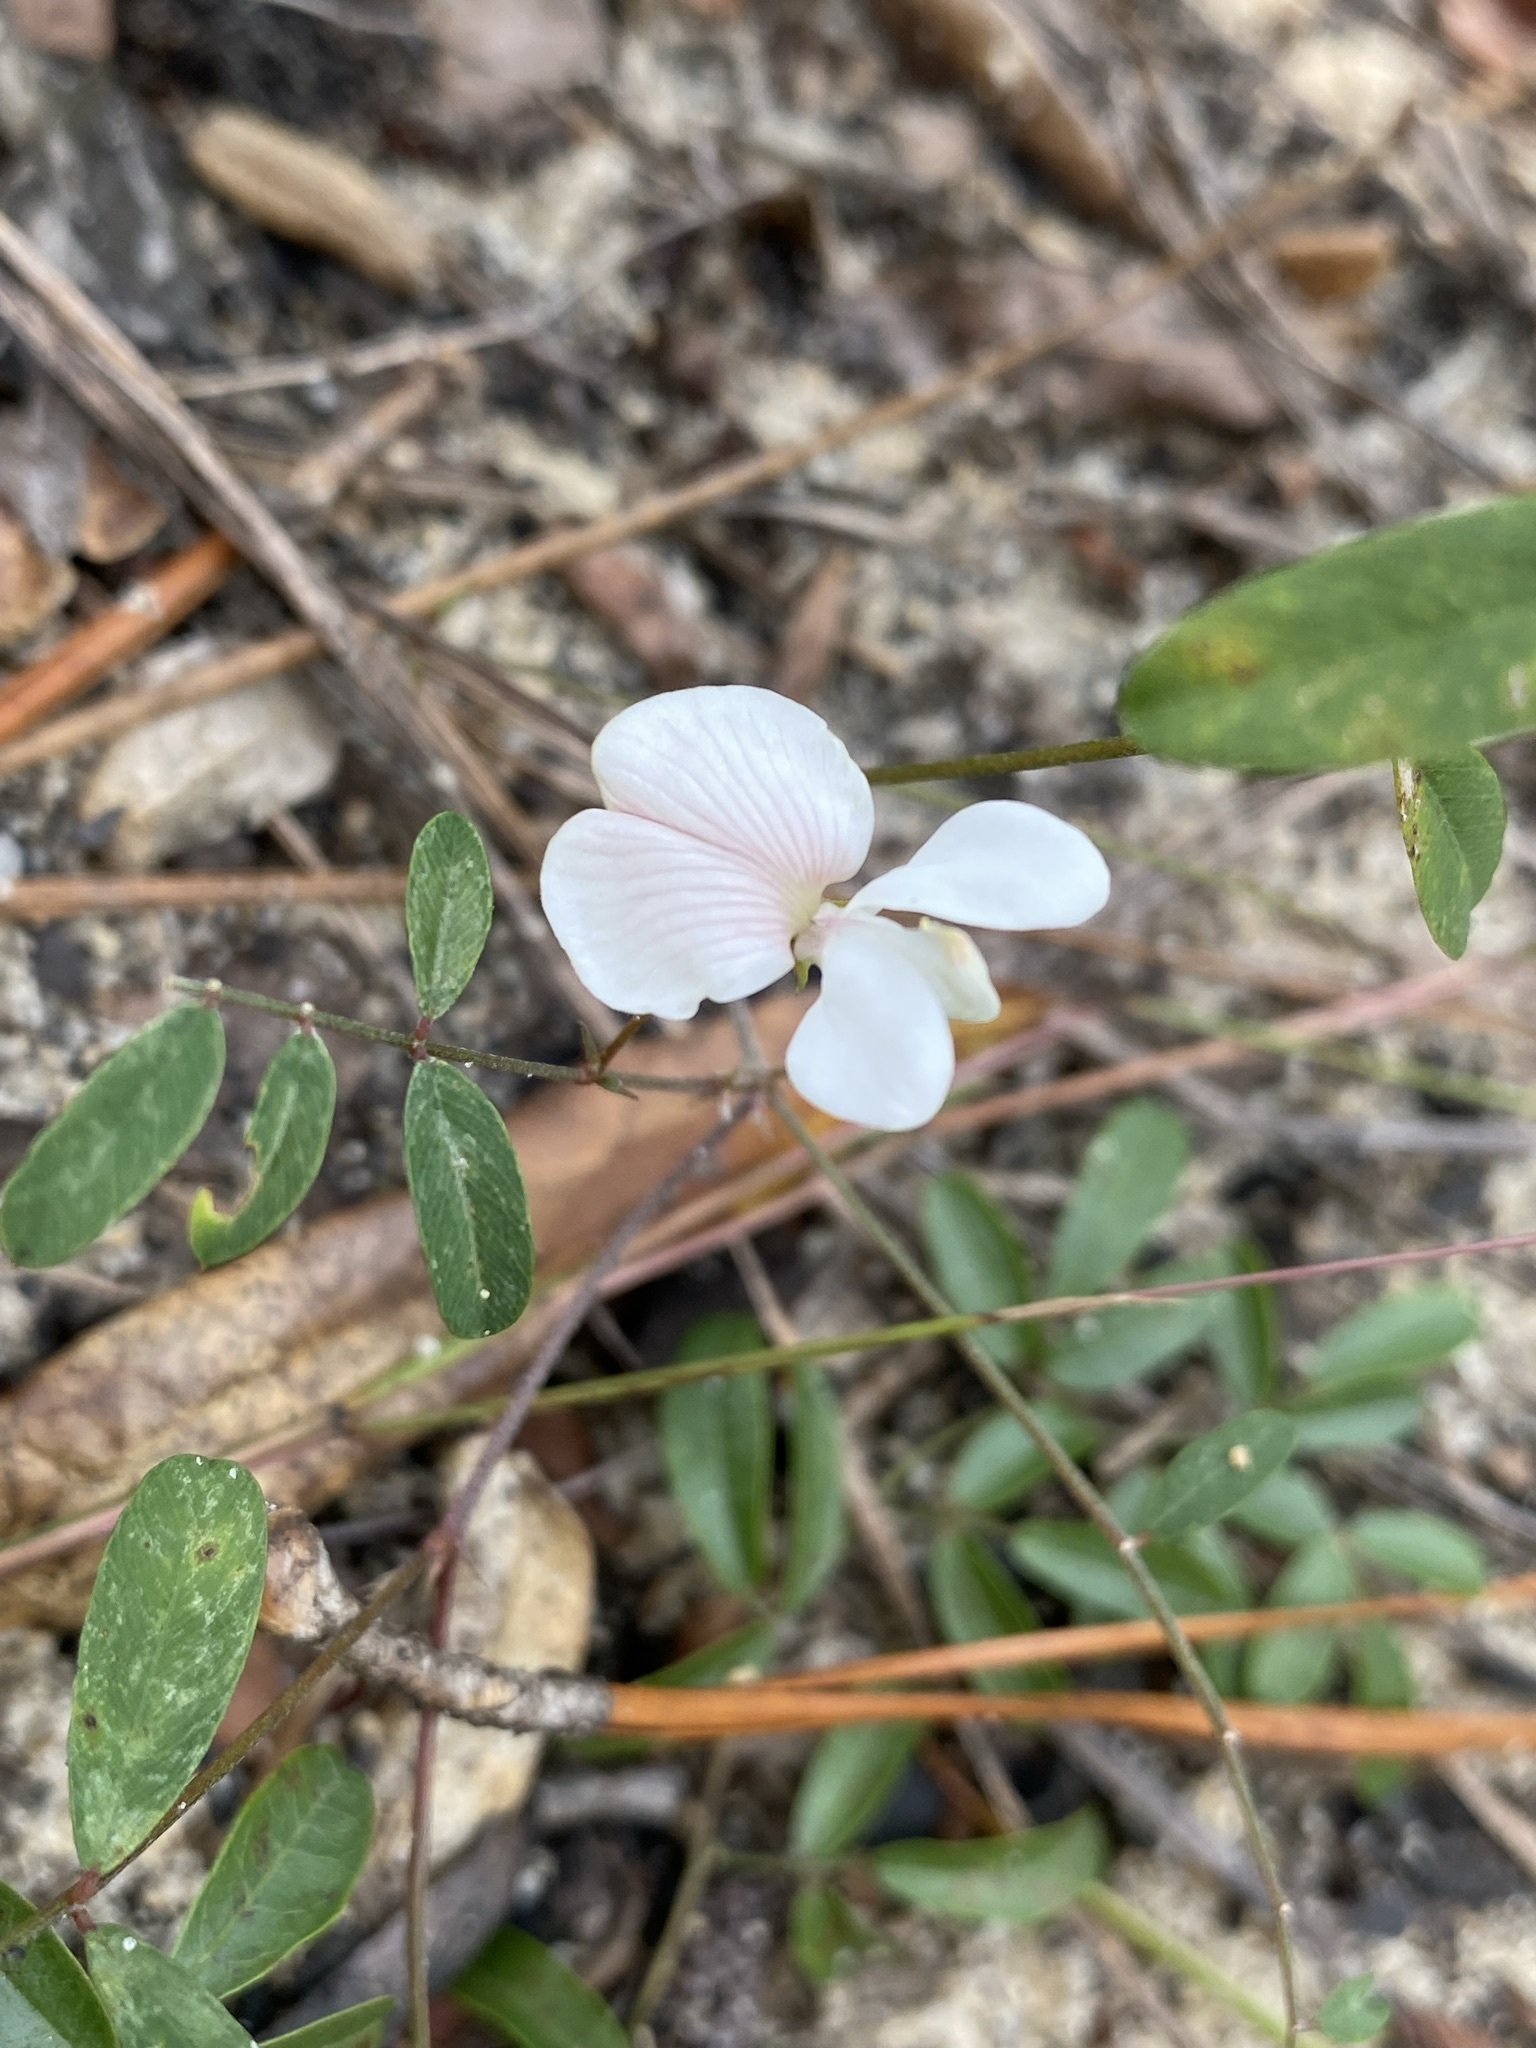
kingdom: Plantae
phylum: Tracheophyta
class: Magnoliopsida
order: Fabales
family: Fabaceae
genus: Tephrosia
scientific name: Tephrosia florida
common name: Florida hoary-pea
